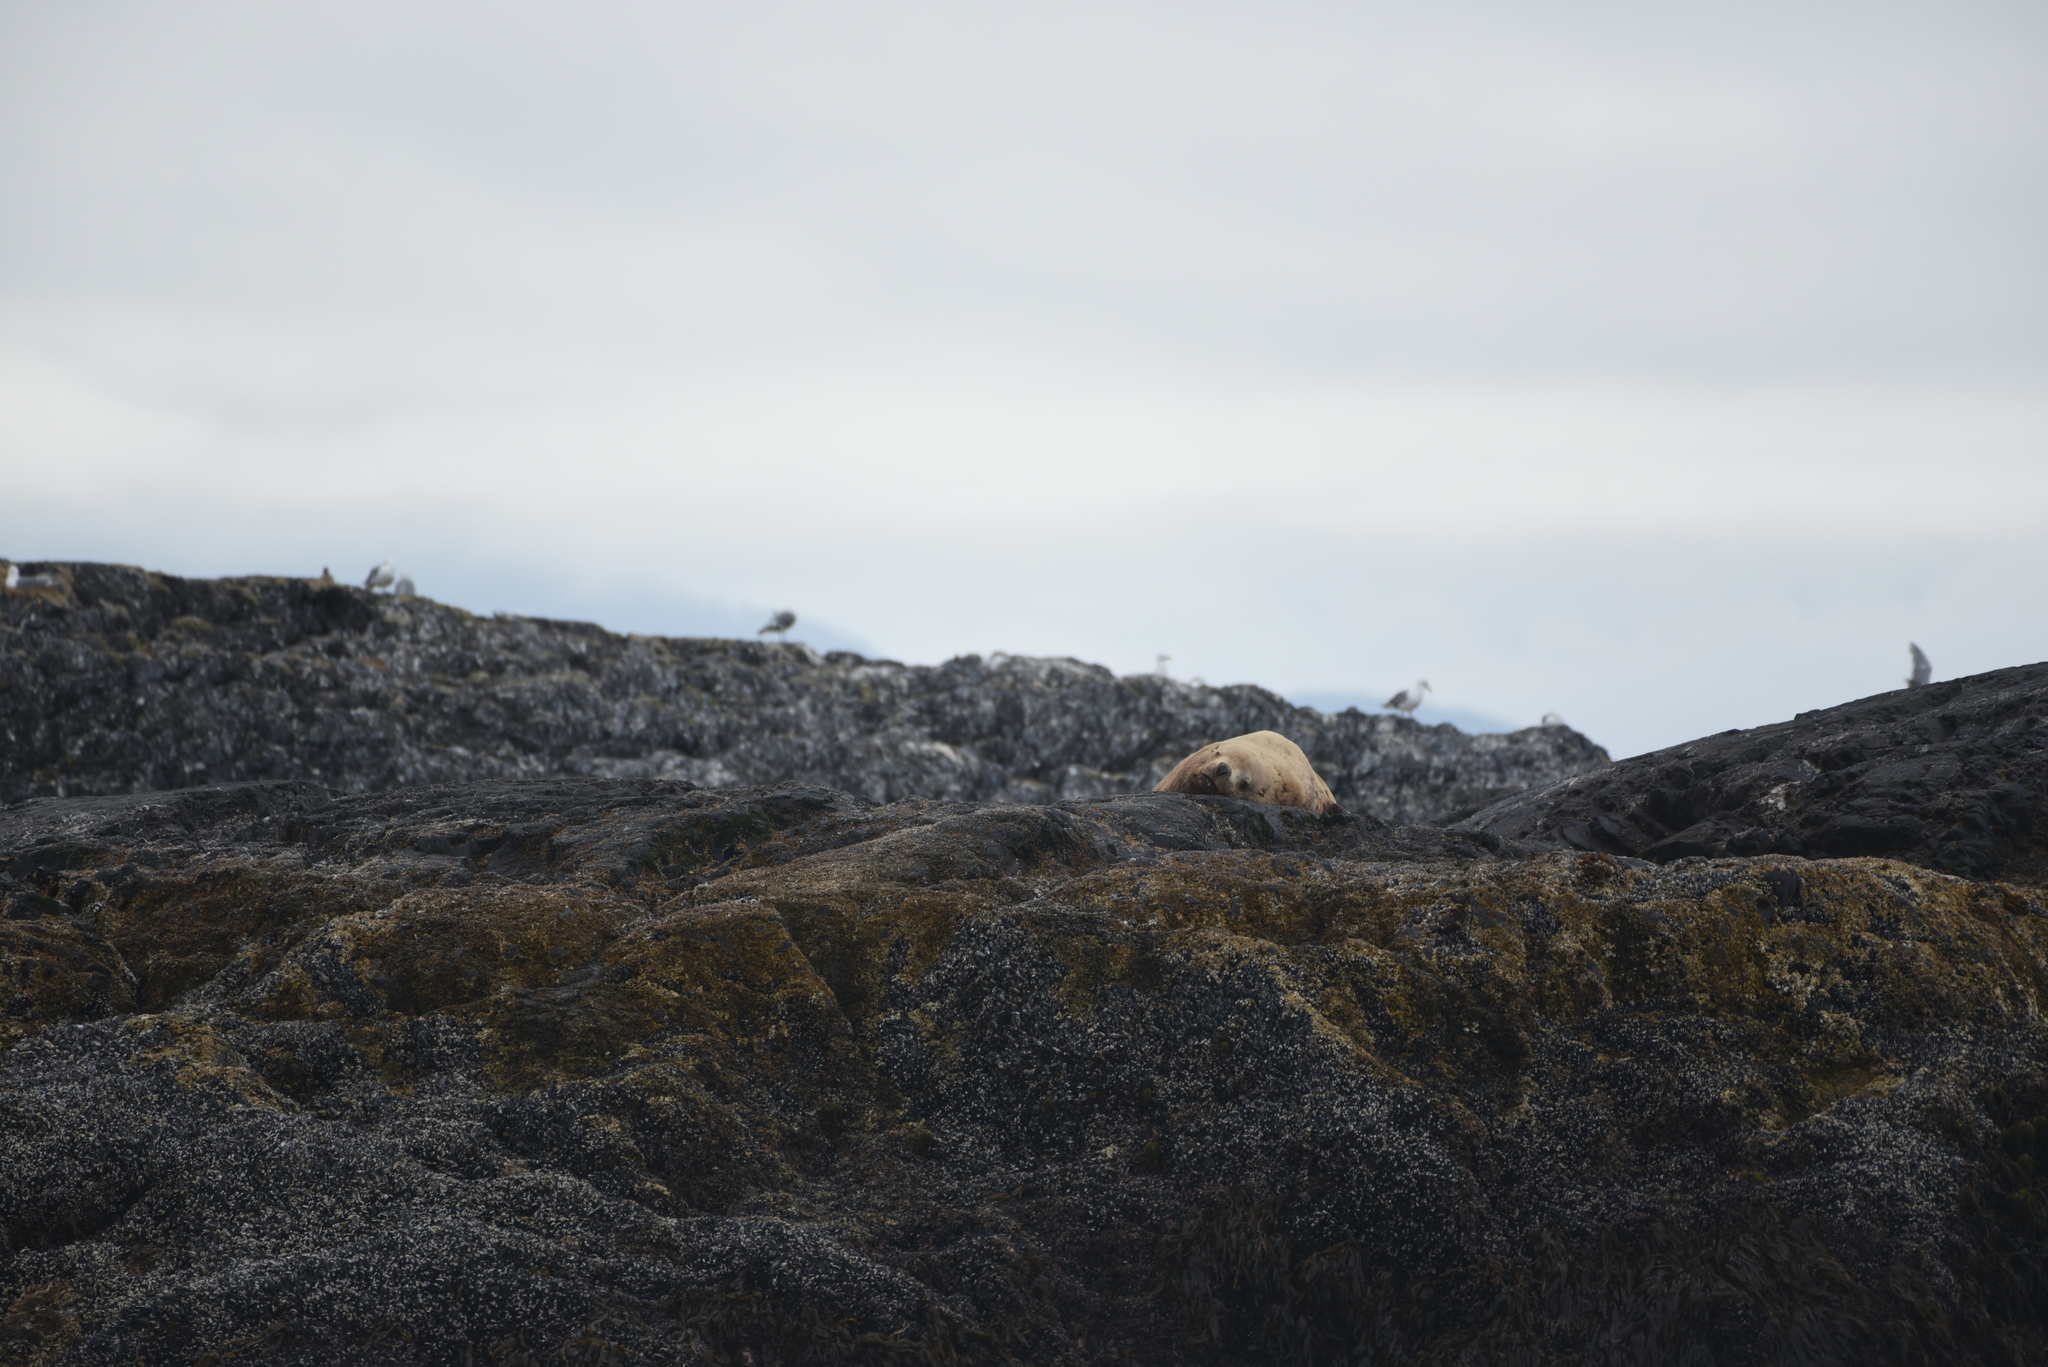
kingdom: Animalia
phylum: Chordata
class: Mammalia
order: Carnivora
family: Otariidae
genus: Eumetopias
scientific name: Eumetopias jubatus
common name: Steller sea lion
